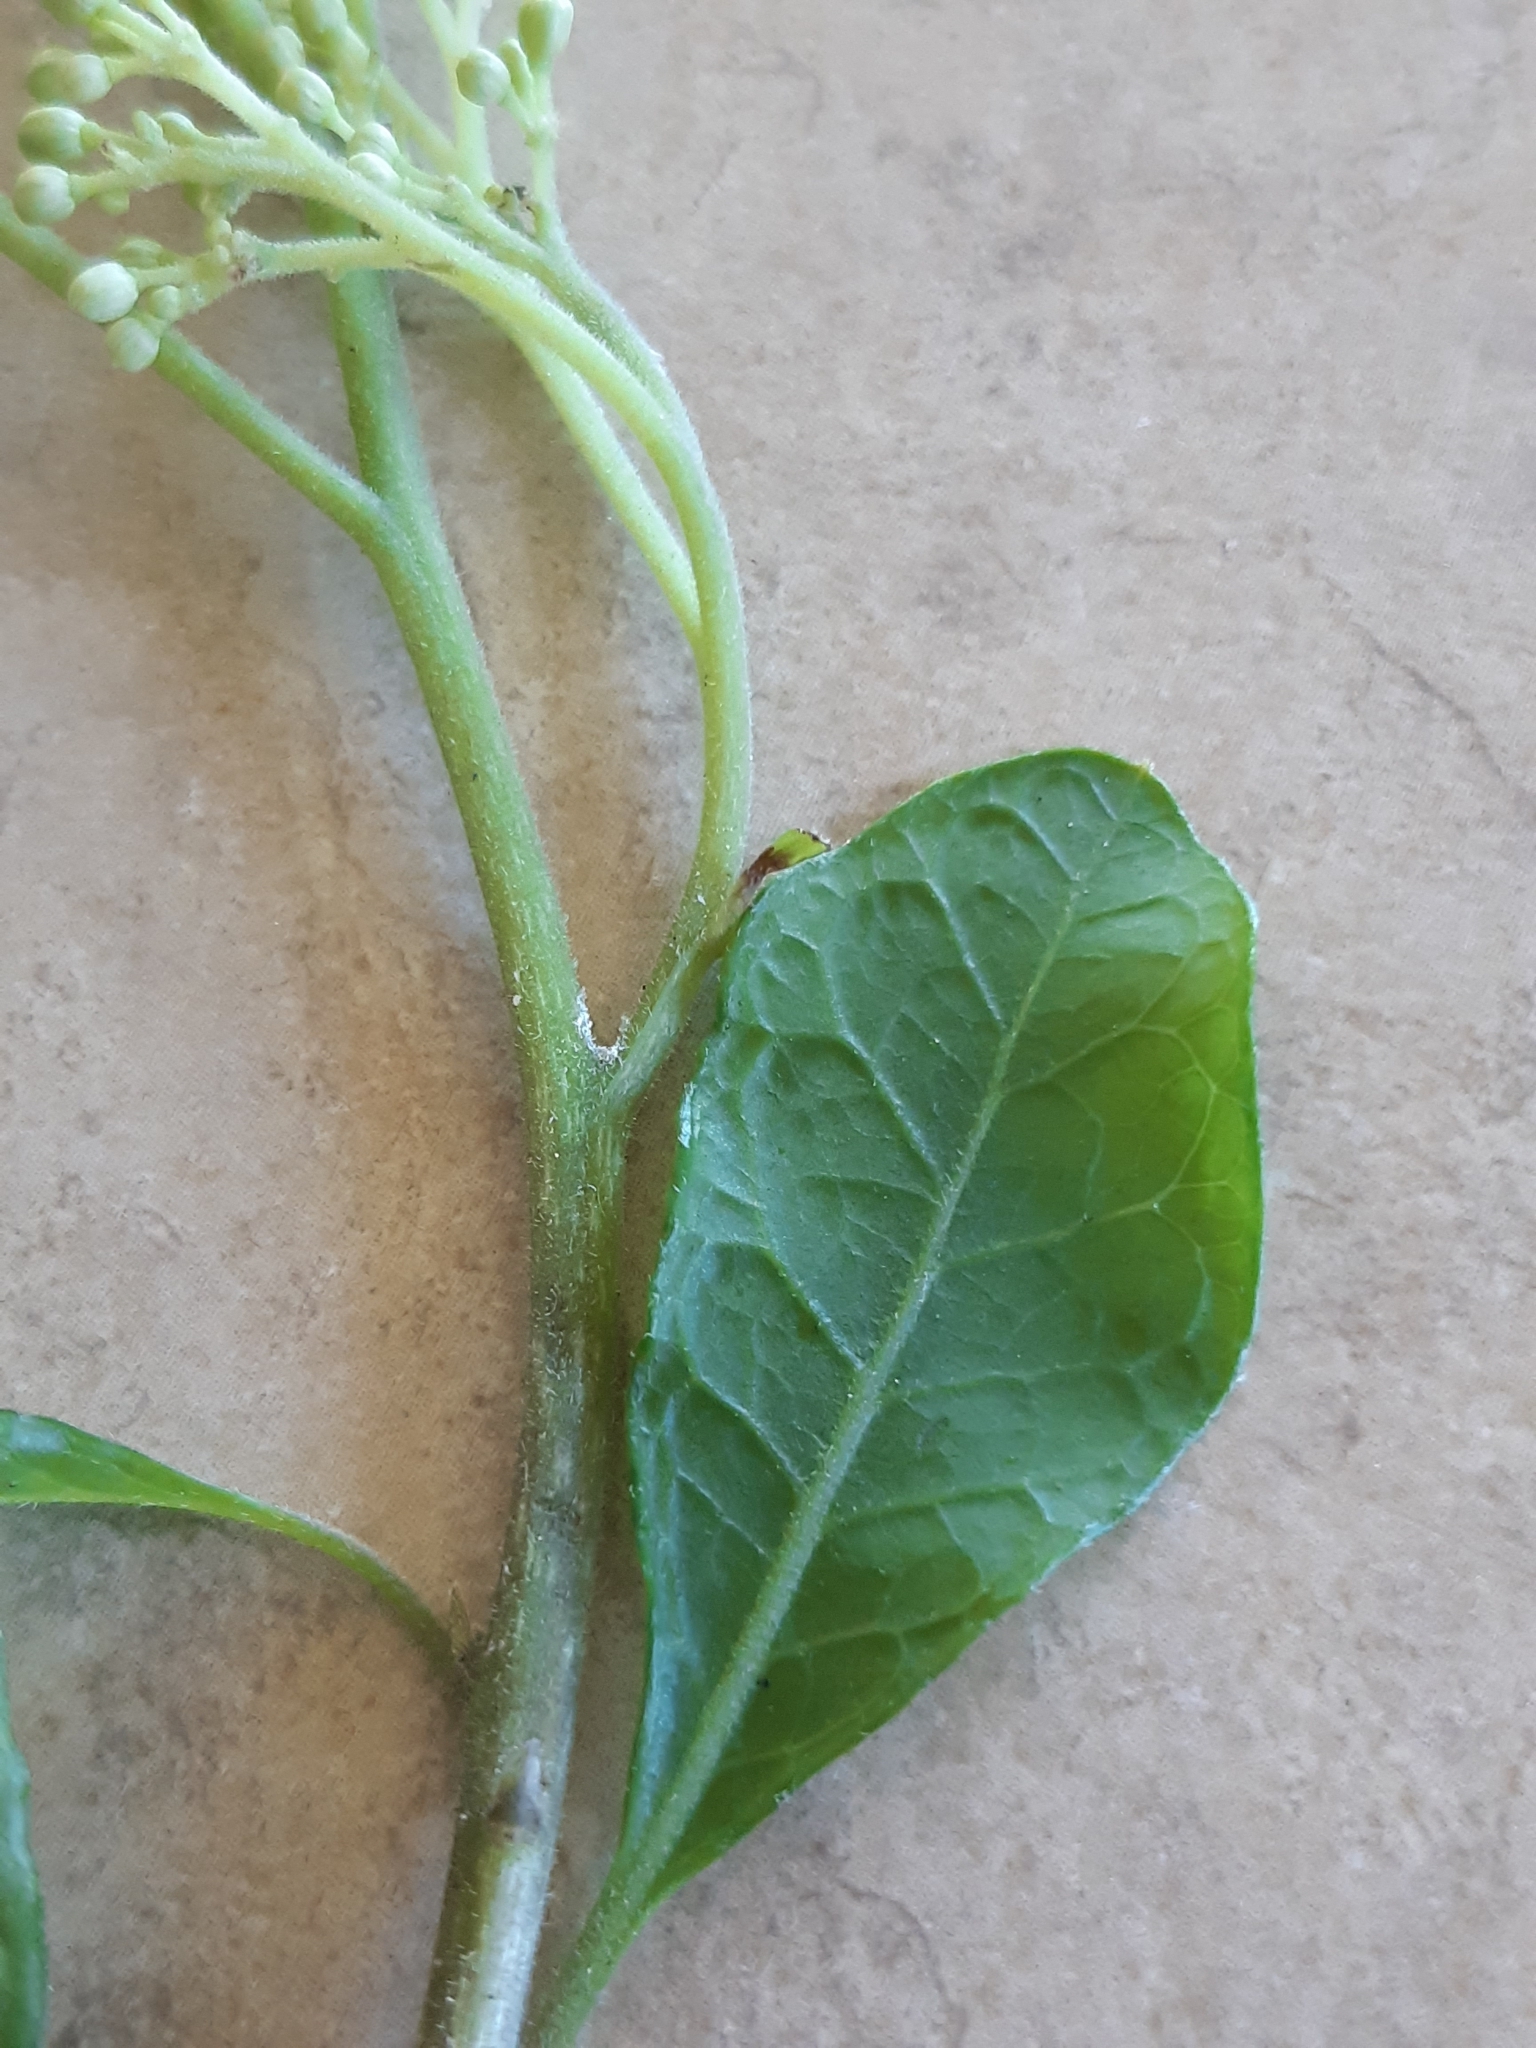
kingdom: Plantae
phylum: Tracheophyta
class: Magnoliopsida
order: Apiales
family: Pennantiaceae
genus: Pennantia
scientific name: Pennantia corymbosa
